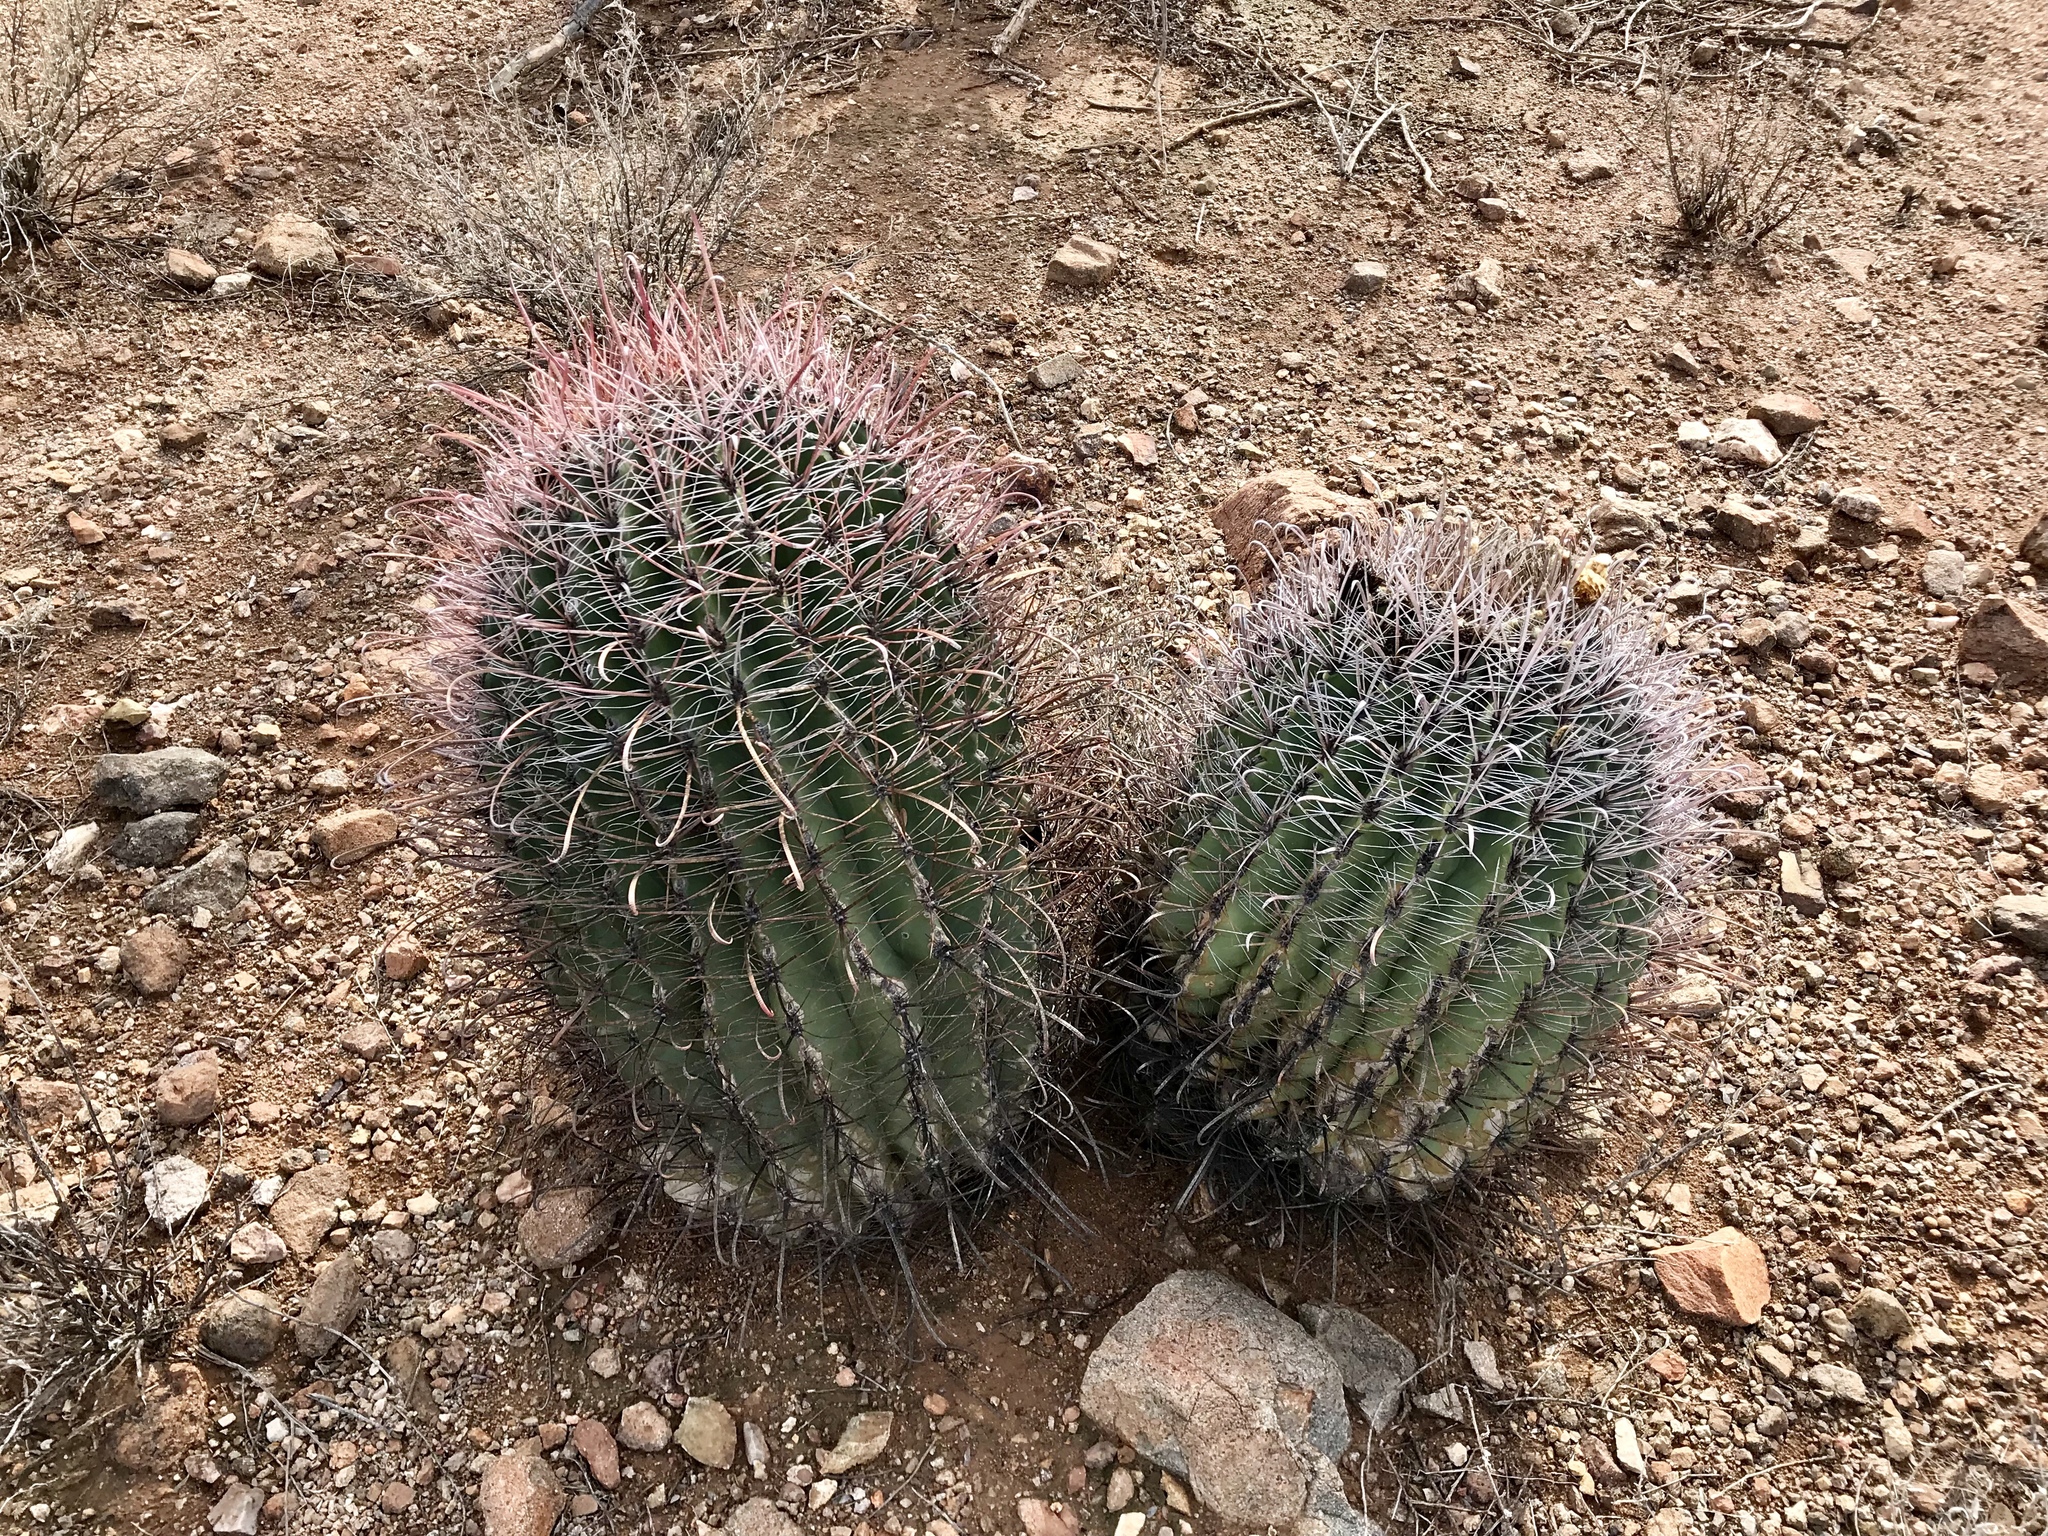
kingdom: Plantae
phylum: Tracheophyta
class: Magnoliopsida
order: Caryophyllales
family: Cactaceae
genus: Ferocactus
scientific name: Ferocactus wislizeni
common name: Candy barrel cactus
